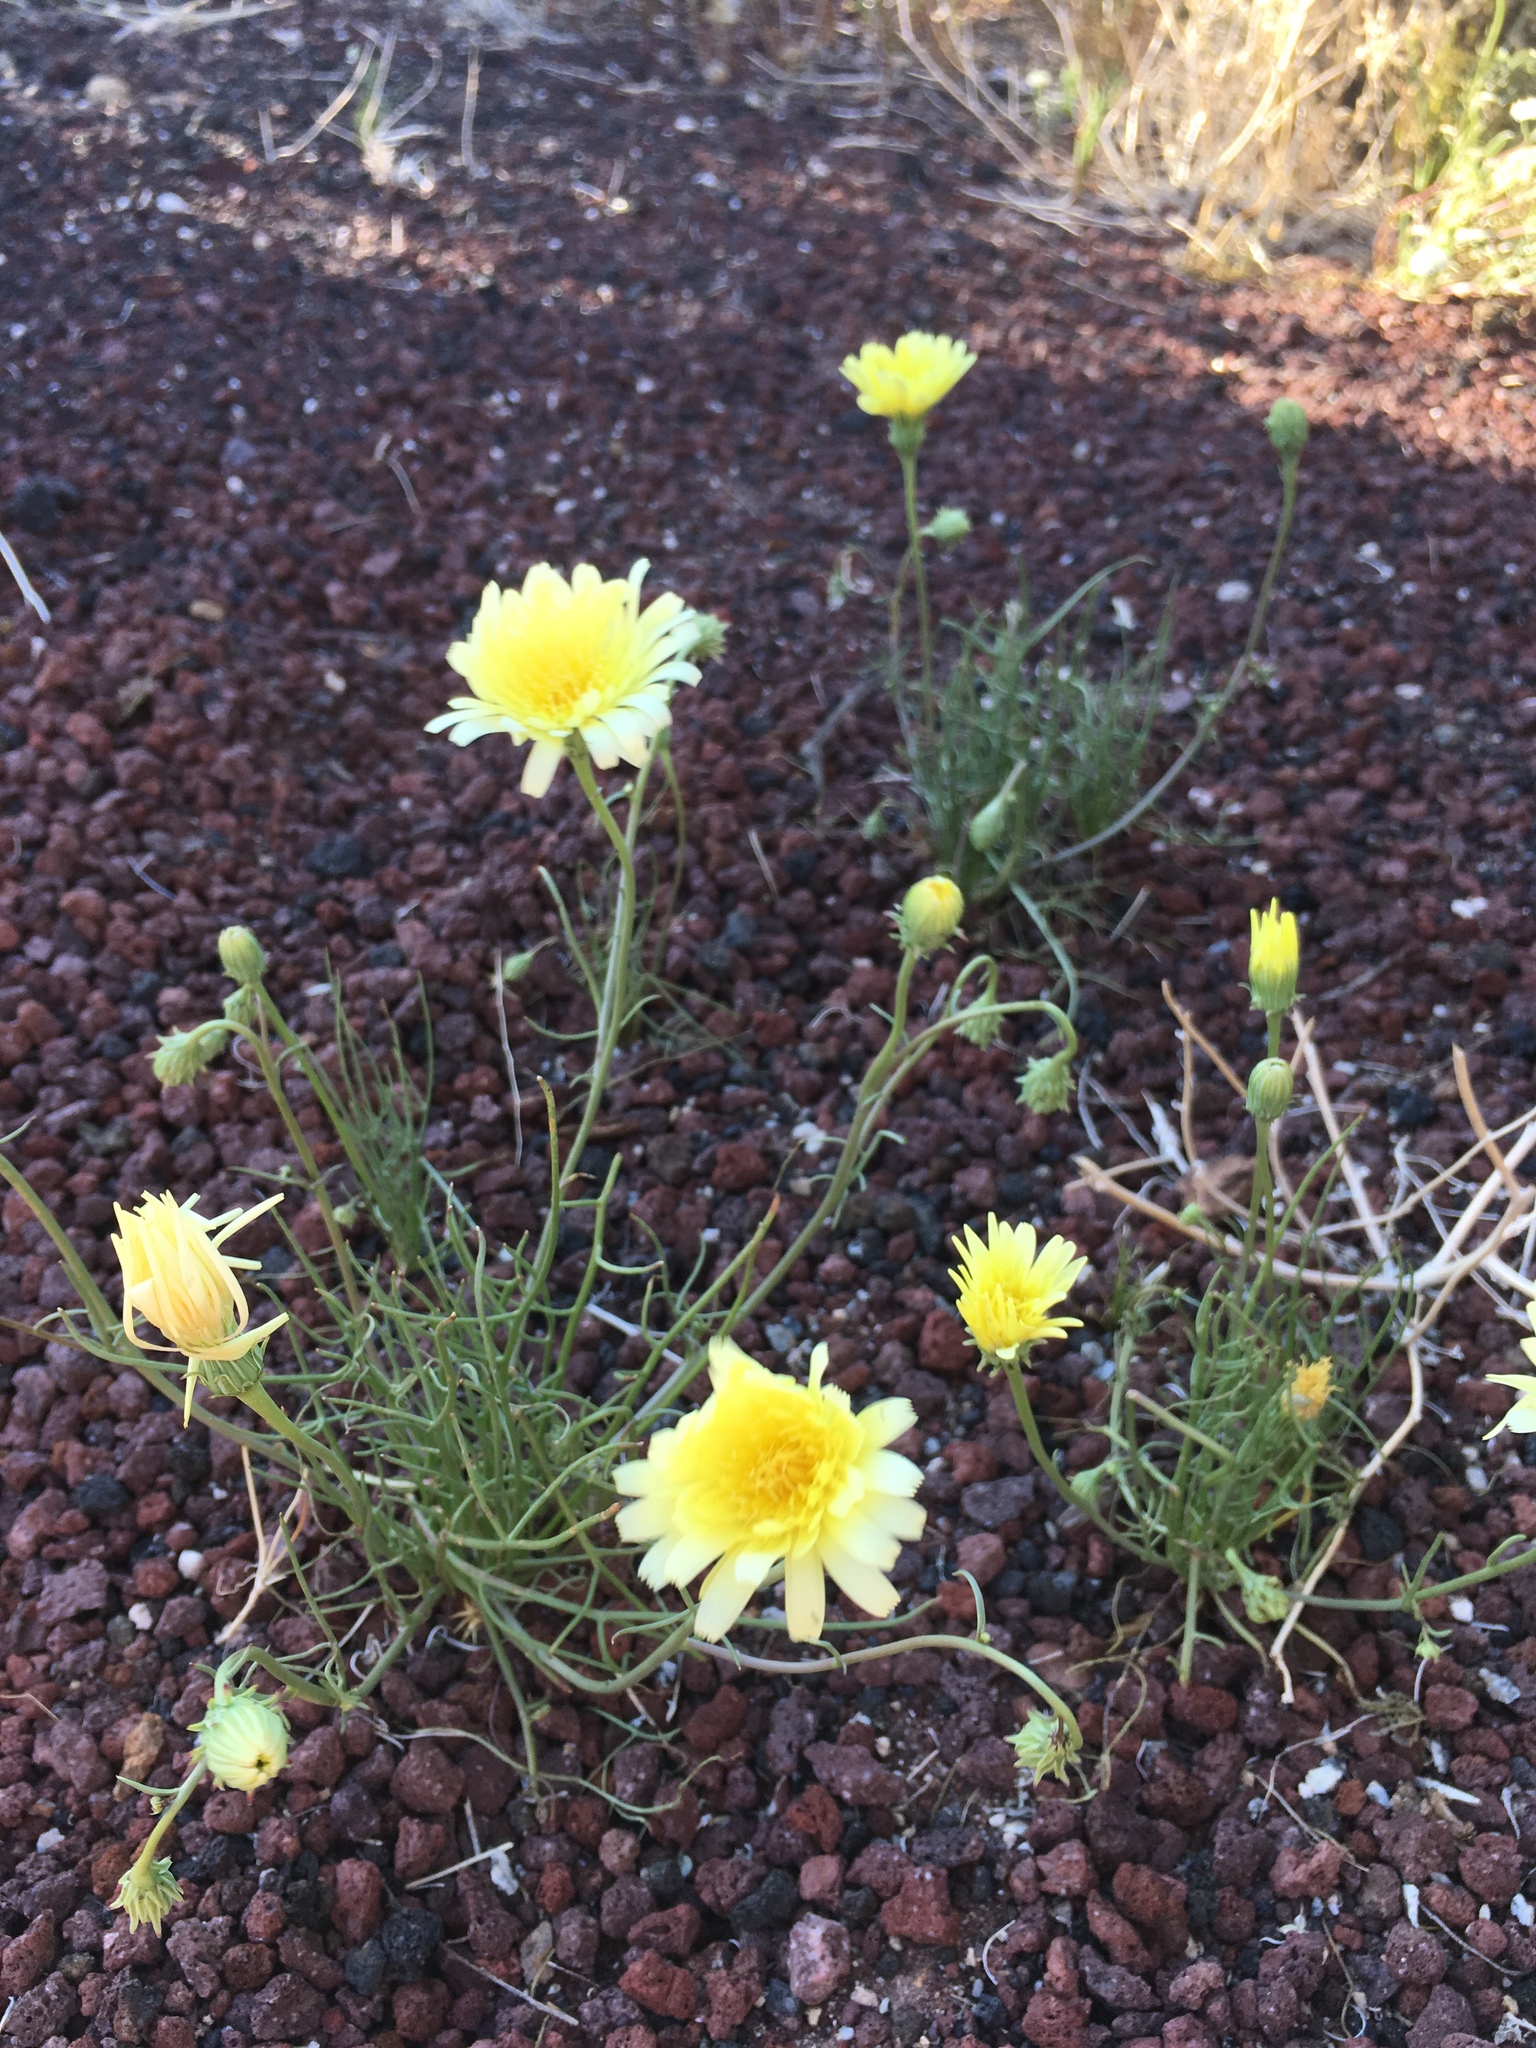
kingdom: Plantae
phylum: Tracheophyta
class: Magnoliopsida
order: Asterales
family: Asteraceae
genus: Malacothrix
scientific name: Malacothrix glabrata
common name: Smooth desert-dandelion
